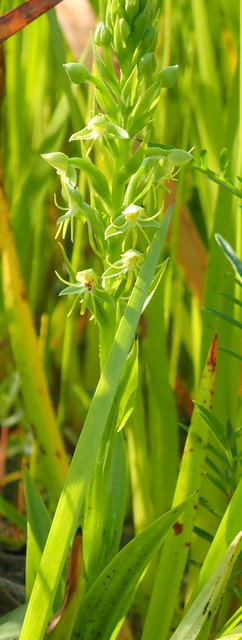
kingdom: Plantae
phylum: Tracheophyta
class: Liliopsida
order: Asparagales
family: Orchidaceae
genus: Habenaria
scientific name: Habenaria repens
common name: Water orchid
